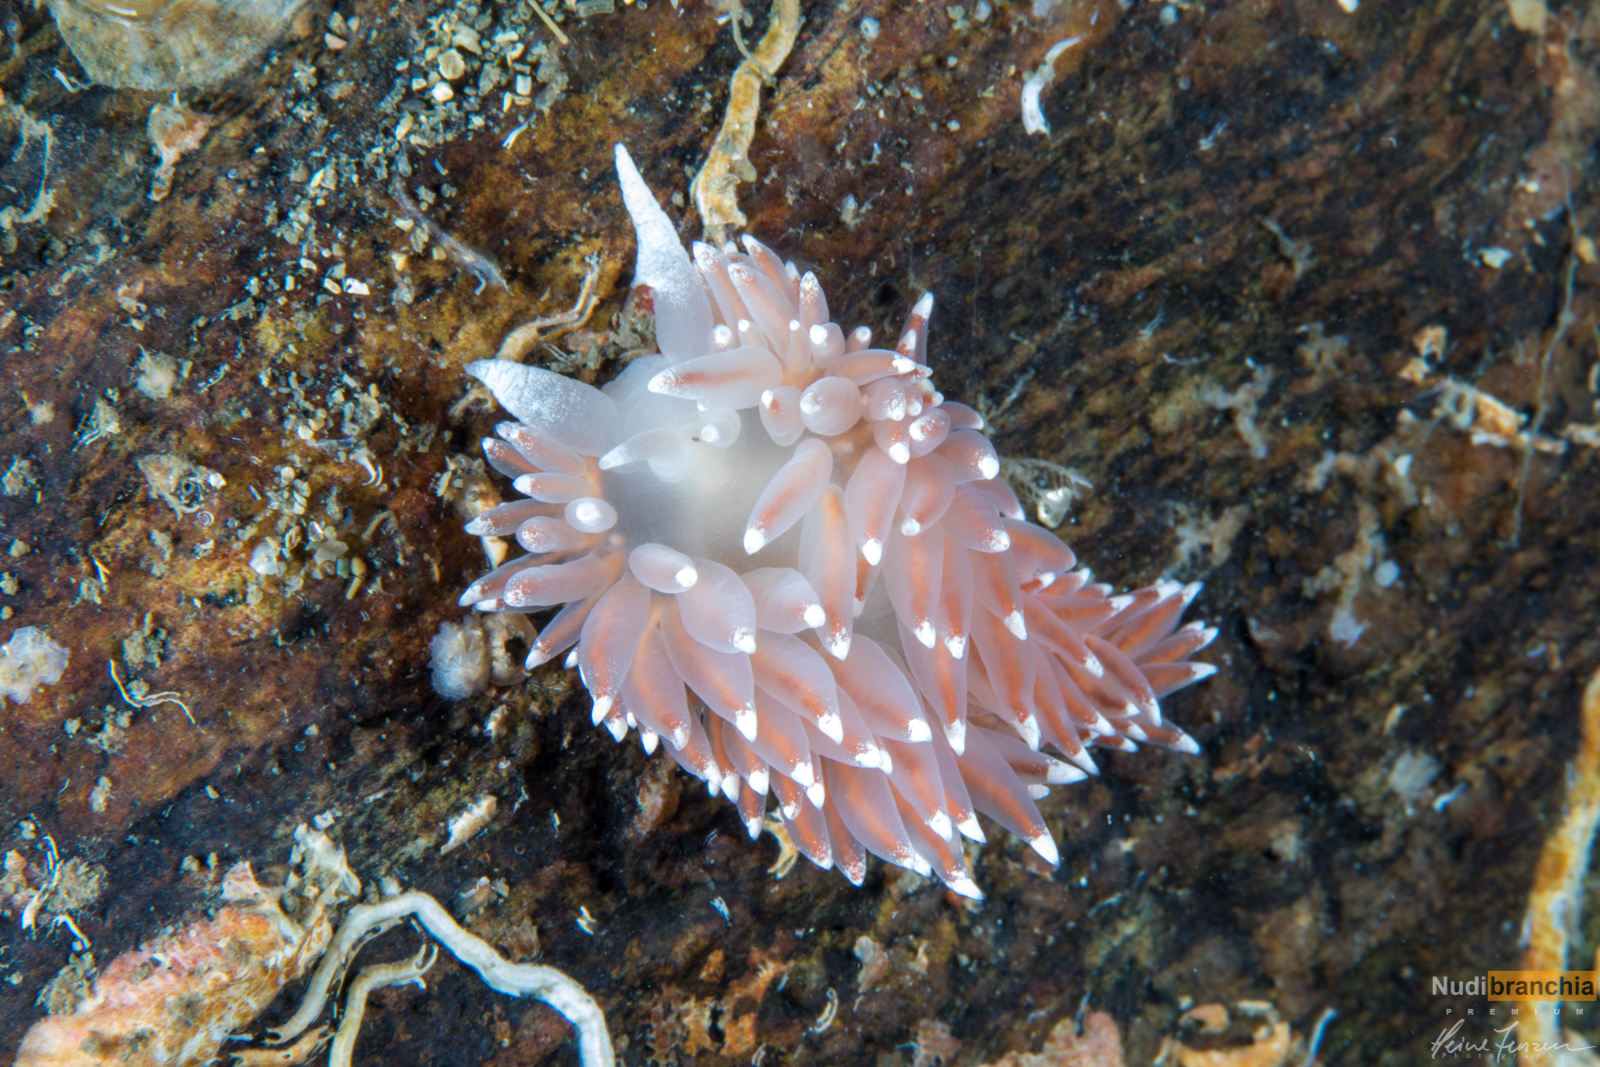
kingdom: Animalia
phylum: Mollusca
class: Gastropoda
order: Nudibranchia
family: Coryphellidae
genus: Coryphella
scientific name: Coryphella nobilis
